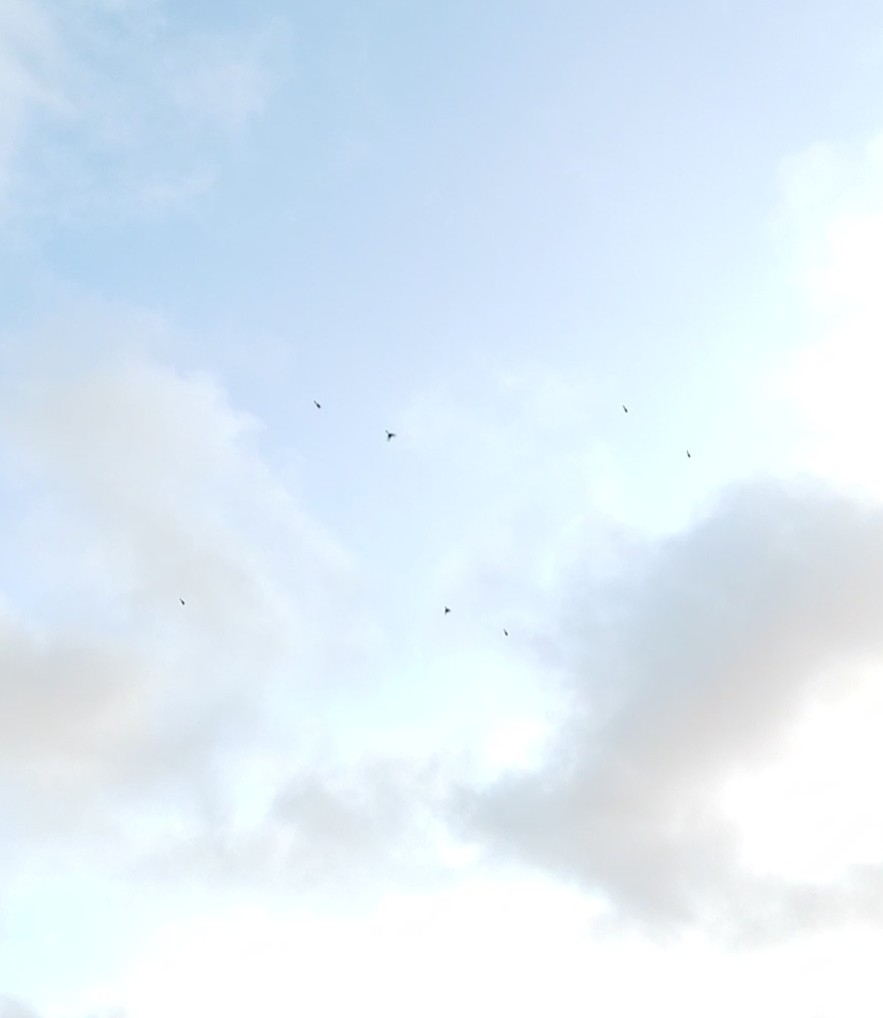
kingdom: Animalia
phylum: Chordata
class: Aves
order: Passeriformes
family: Aegithalidae
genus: Aegithalos
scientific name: Aegithalos caudatus
